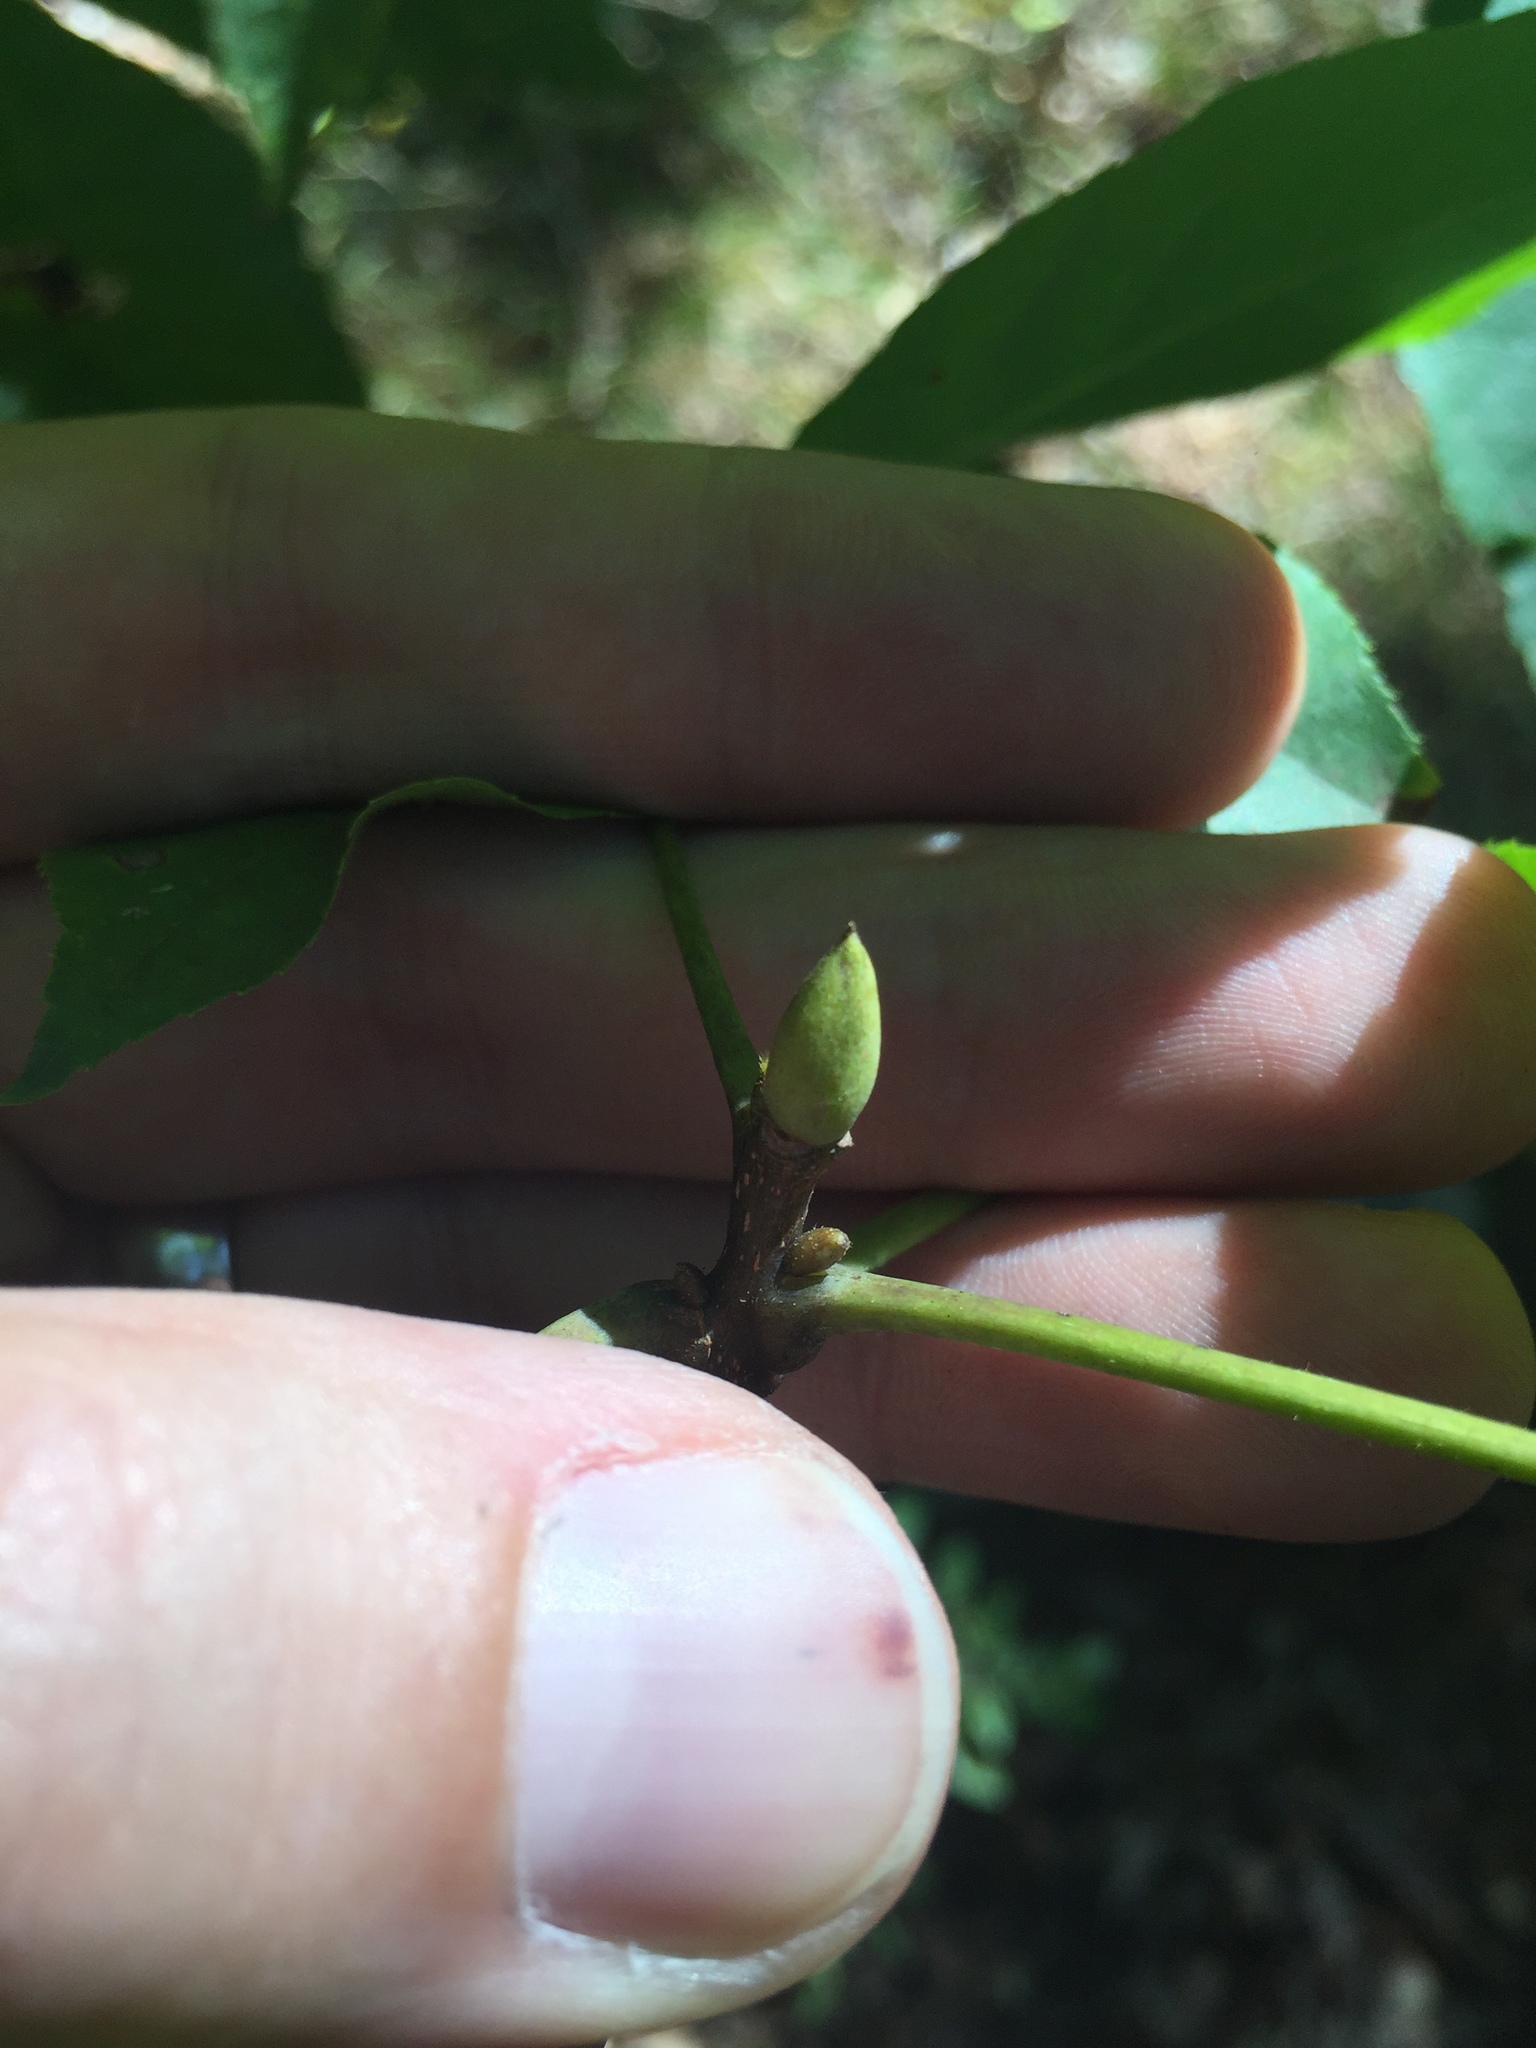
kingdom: Plantae
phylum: Tracheophyta
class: Magnoliopsida
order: Fagales
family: Juglandaceae
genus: Carya
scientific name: Carya alba
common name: Mockernut hickory
